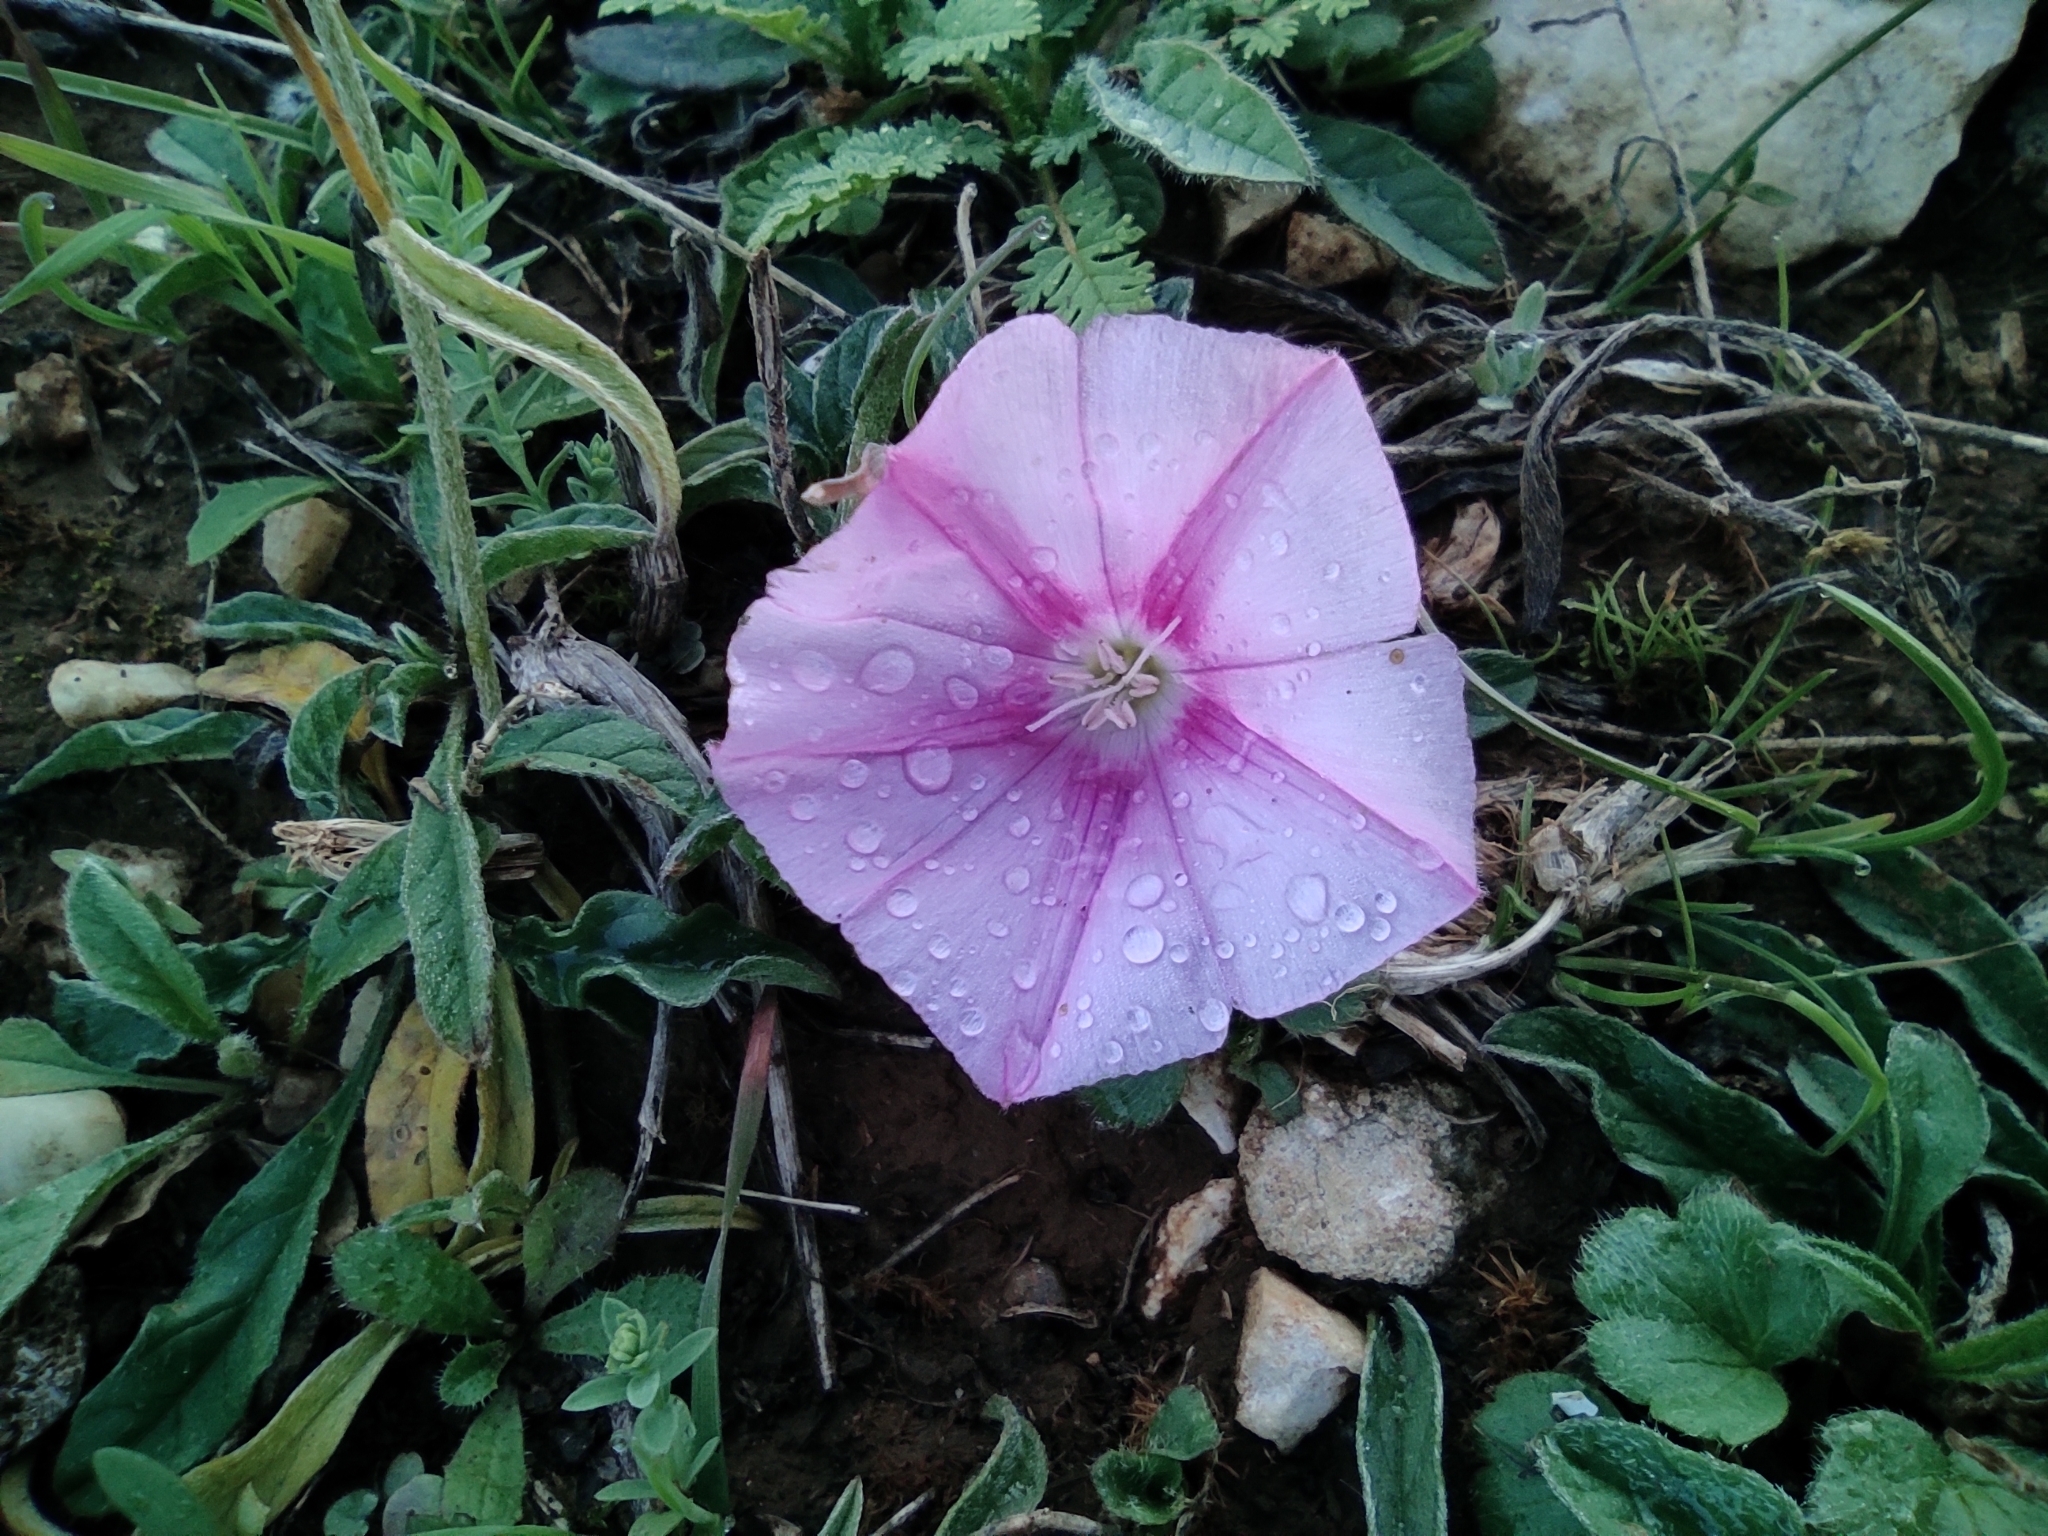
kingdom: Plantae
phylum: Tracheophyta
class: Magnoliopsida
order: Solanales
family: Convolvulaceae
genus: Convolvulus
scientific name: Convolvulus cantabrica
